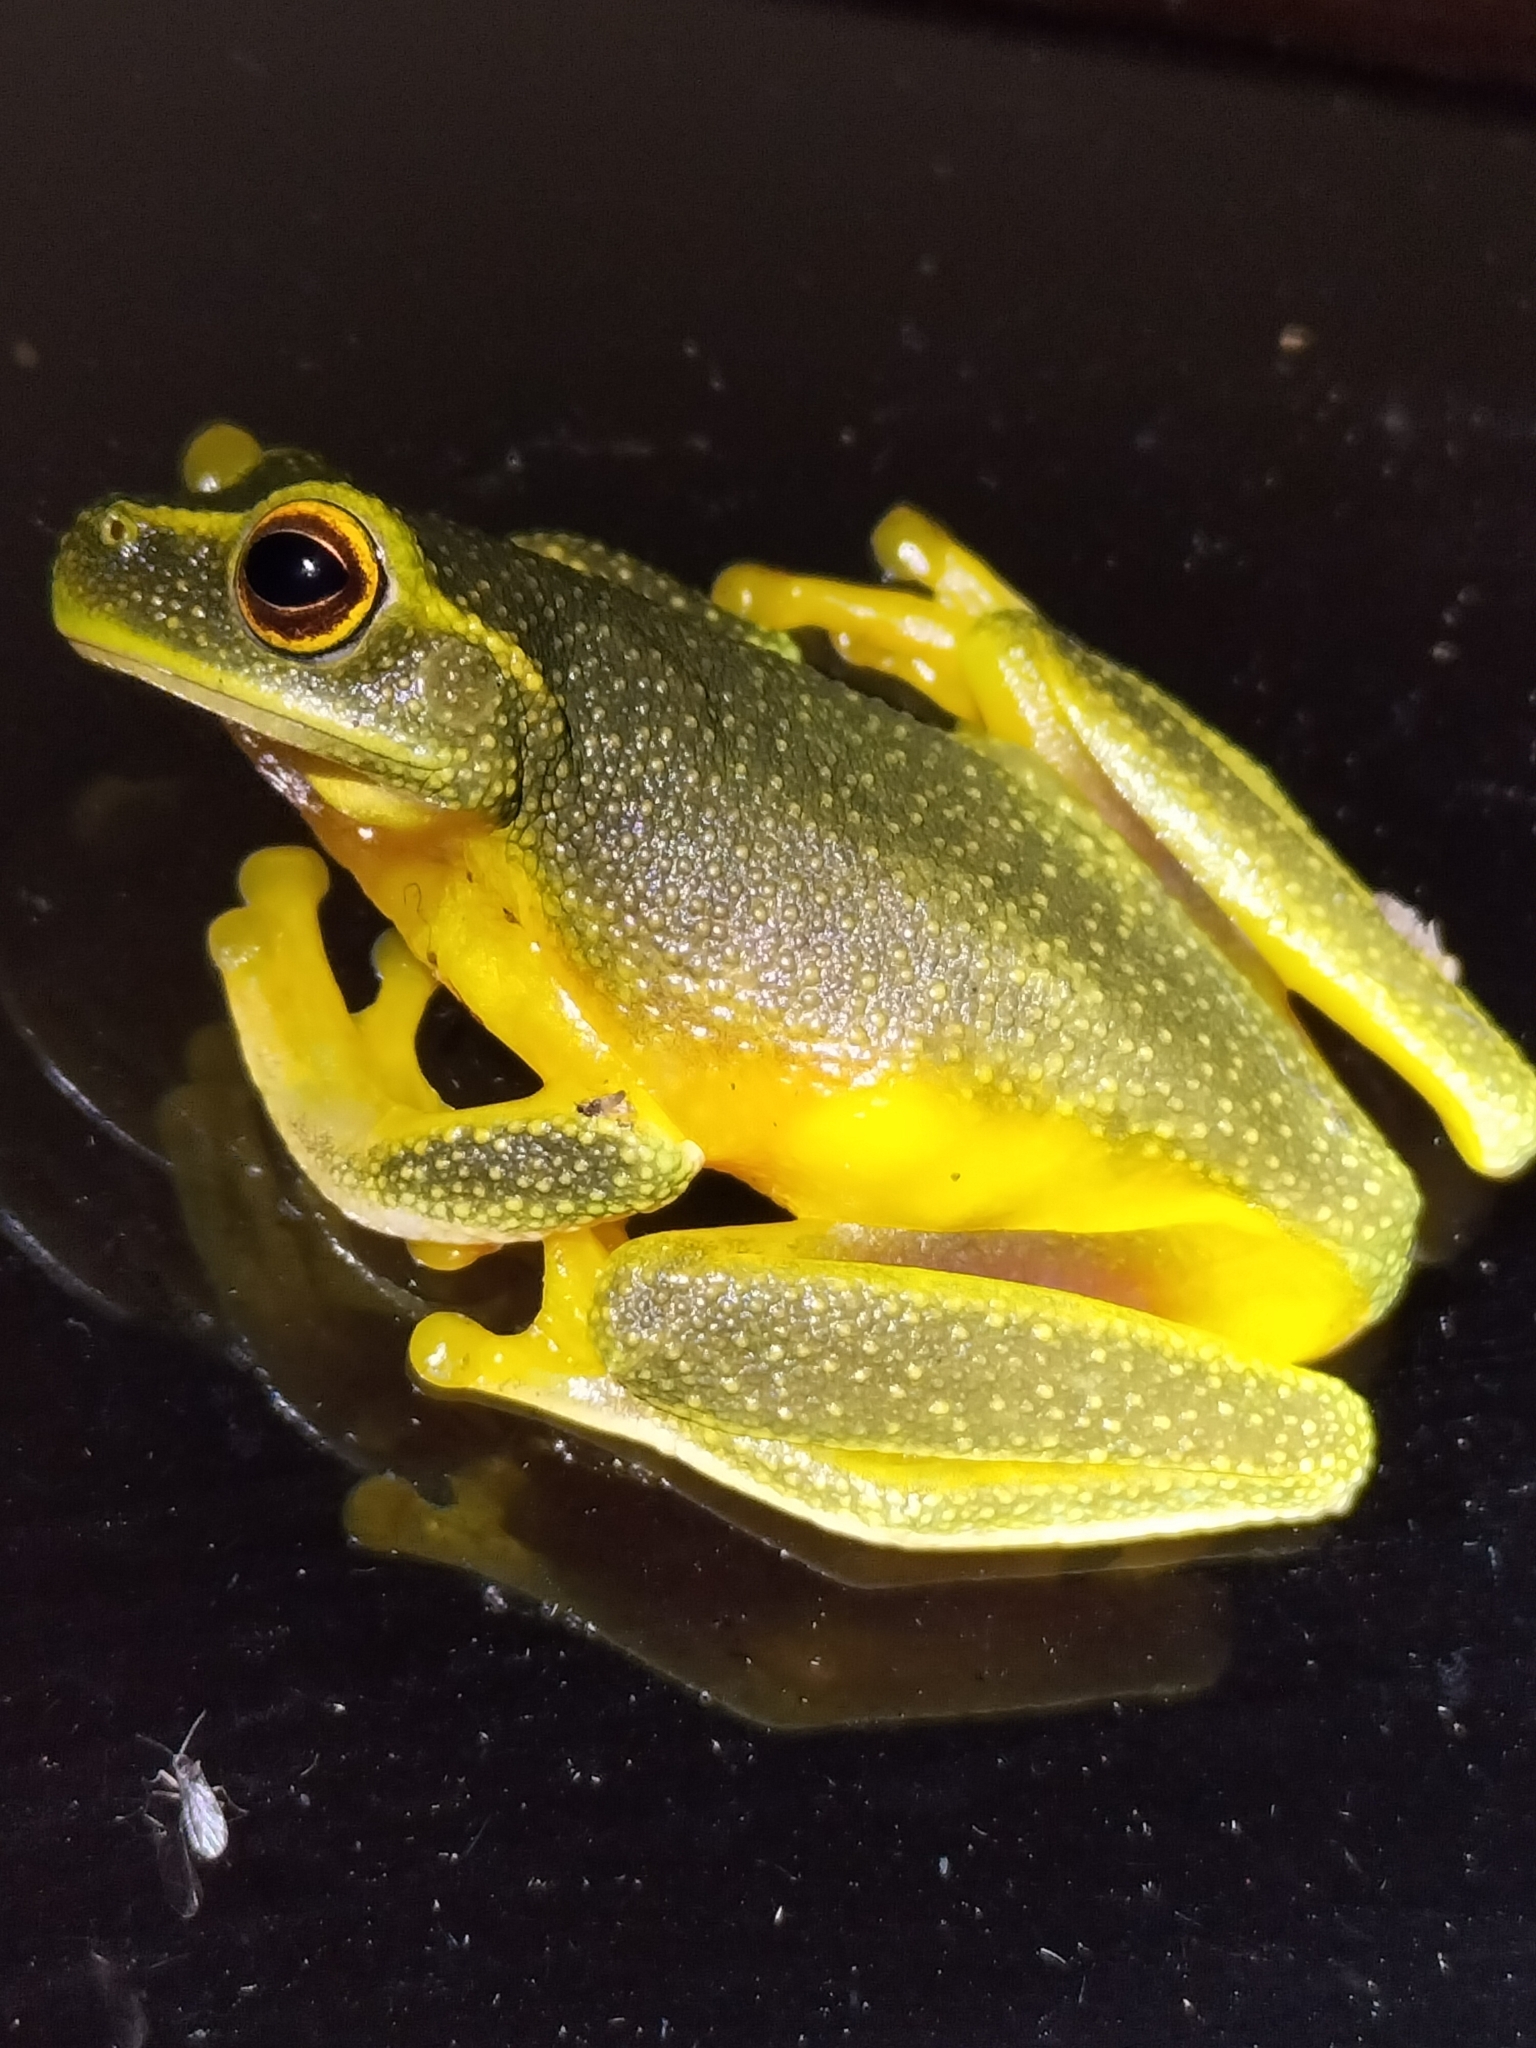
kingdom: Animalia
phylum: Chordata
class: Amphibia
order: Anura
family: Pelodryadidae
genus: Ranoidea
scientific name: Ranoidea gracilenta
